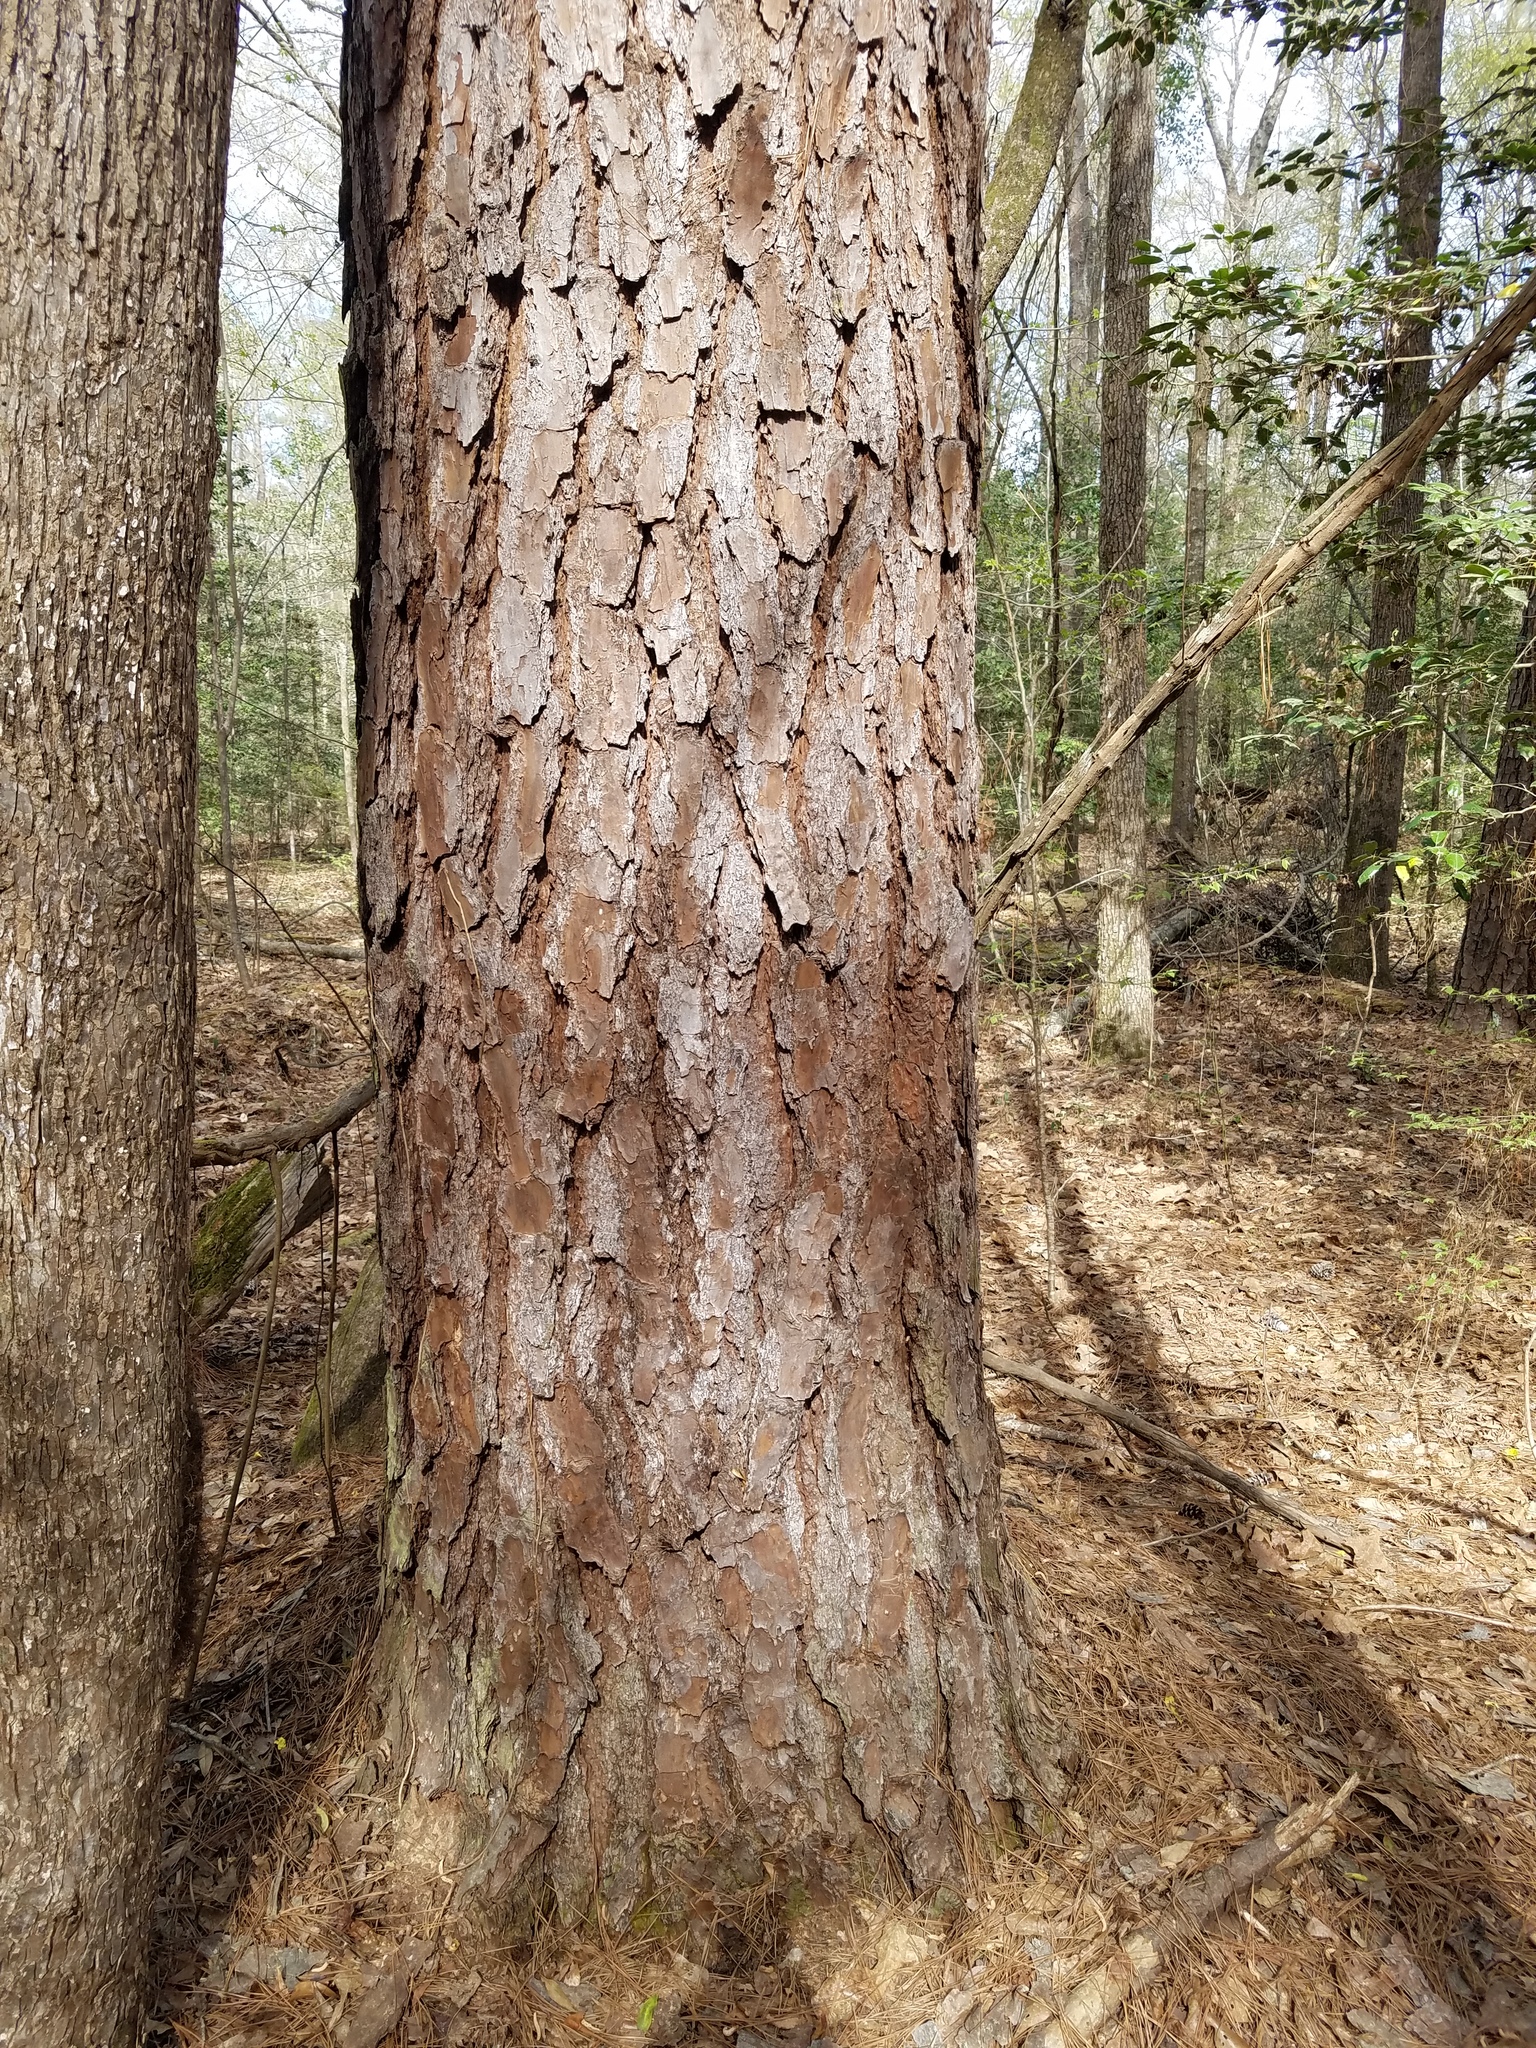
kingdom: Plantae
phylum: Tracheophyta
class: Pinopsida
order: Pinales
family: Pinaceae
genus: Pinus
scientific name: Pinus taeda
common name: Loblolly pine
